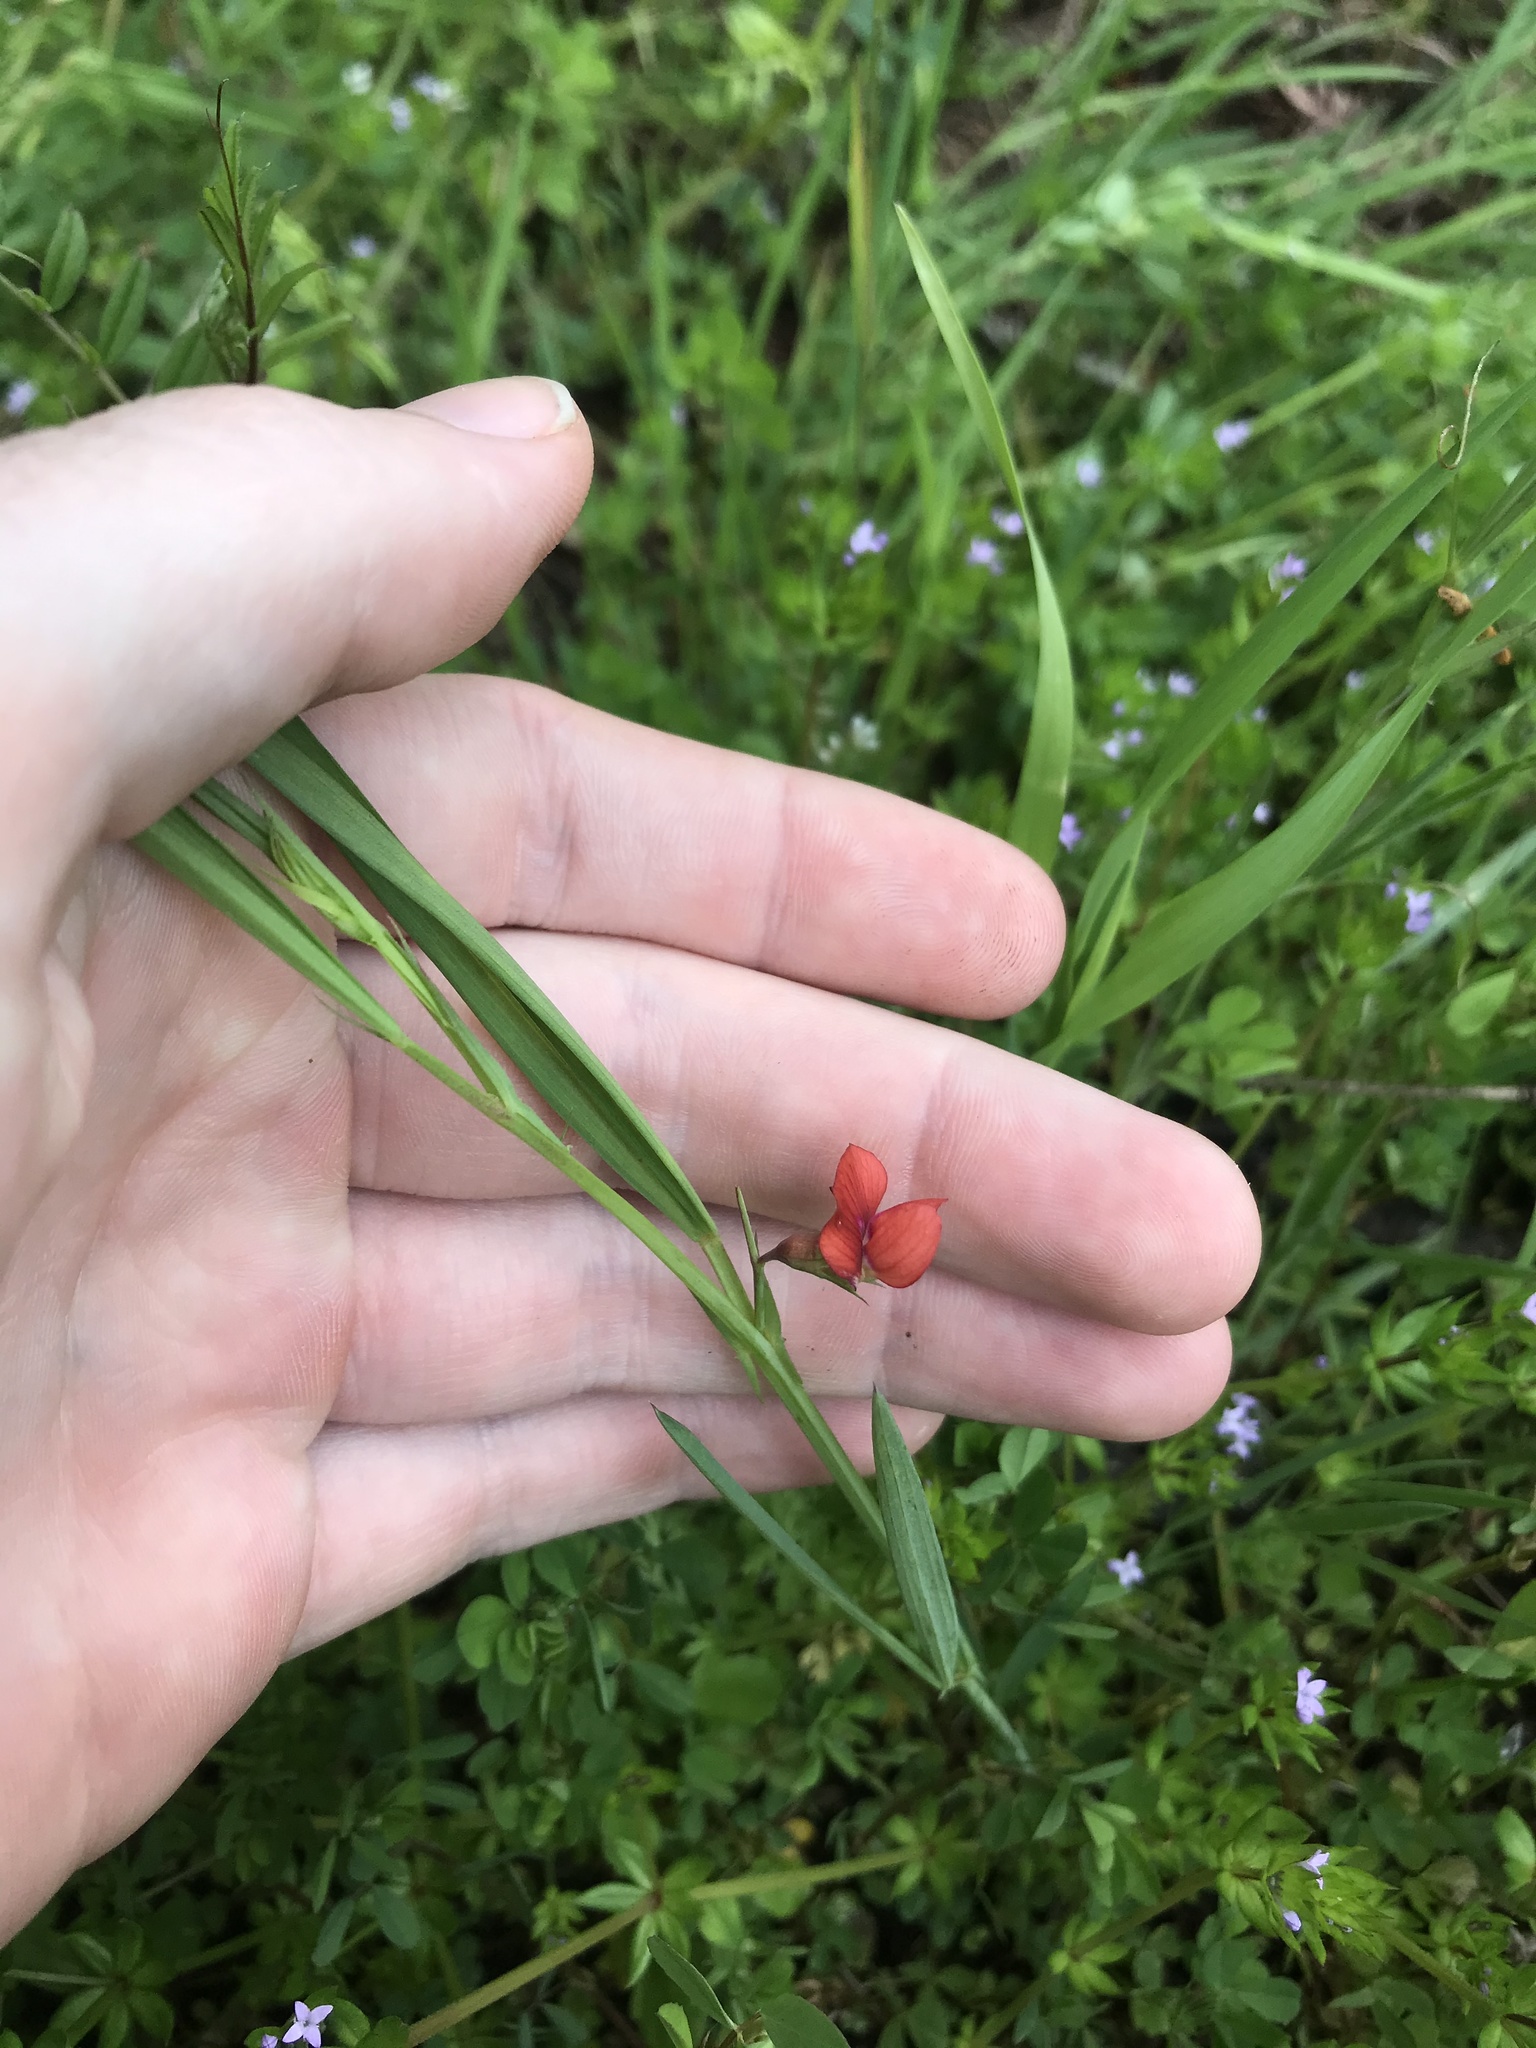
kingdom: Plantae
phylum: Tracheophyta
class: Magnoliopsida
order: Fabales
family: Fabaceae
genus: Lathyrus
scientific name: Lathyrus sphaericus
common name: Grass pea
